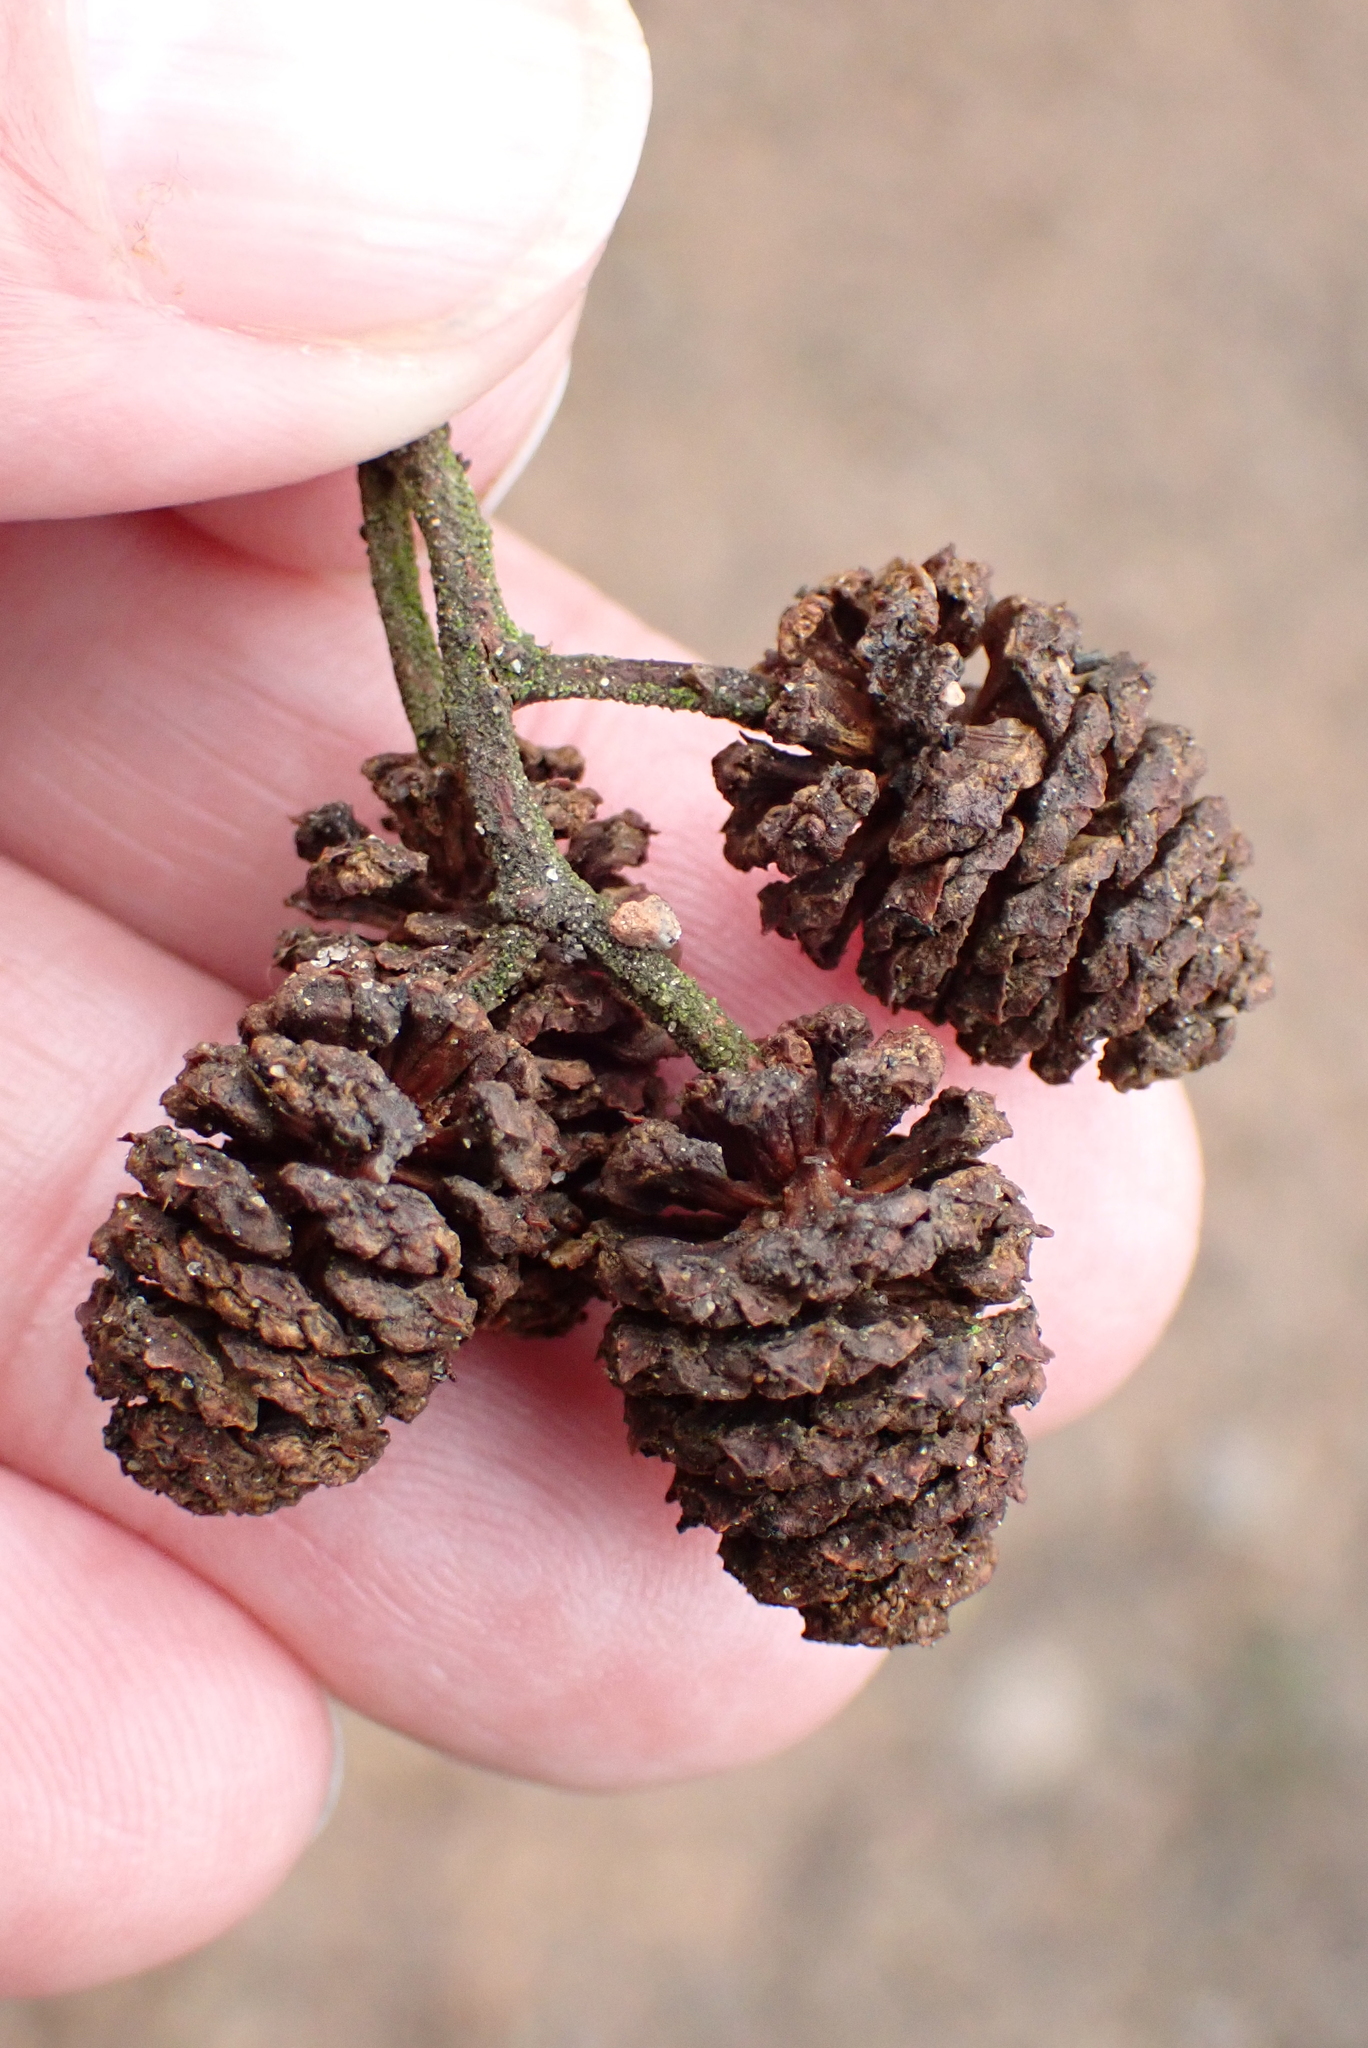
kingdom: Plantae
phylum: Tracheophyta
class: Magnoliopsida
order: Fagales
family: Betulaceae
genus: Alnus
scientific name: Alnus glutinosa
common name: Black alder
